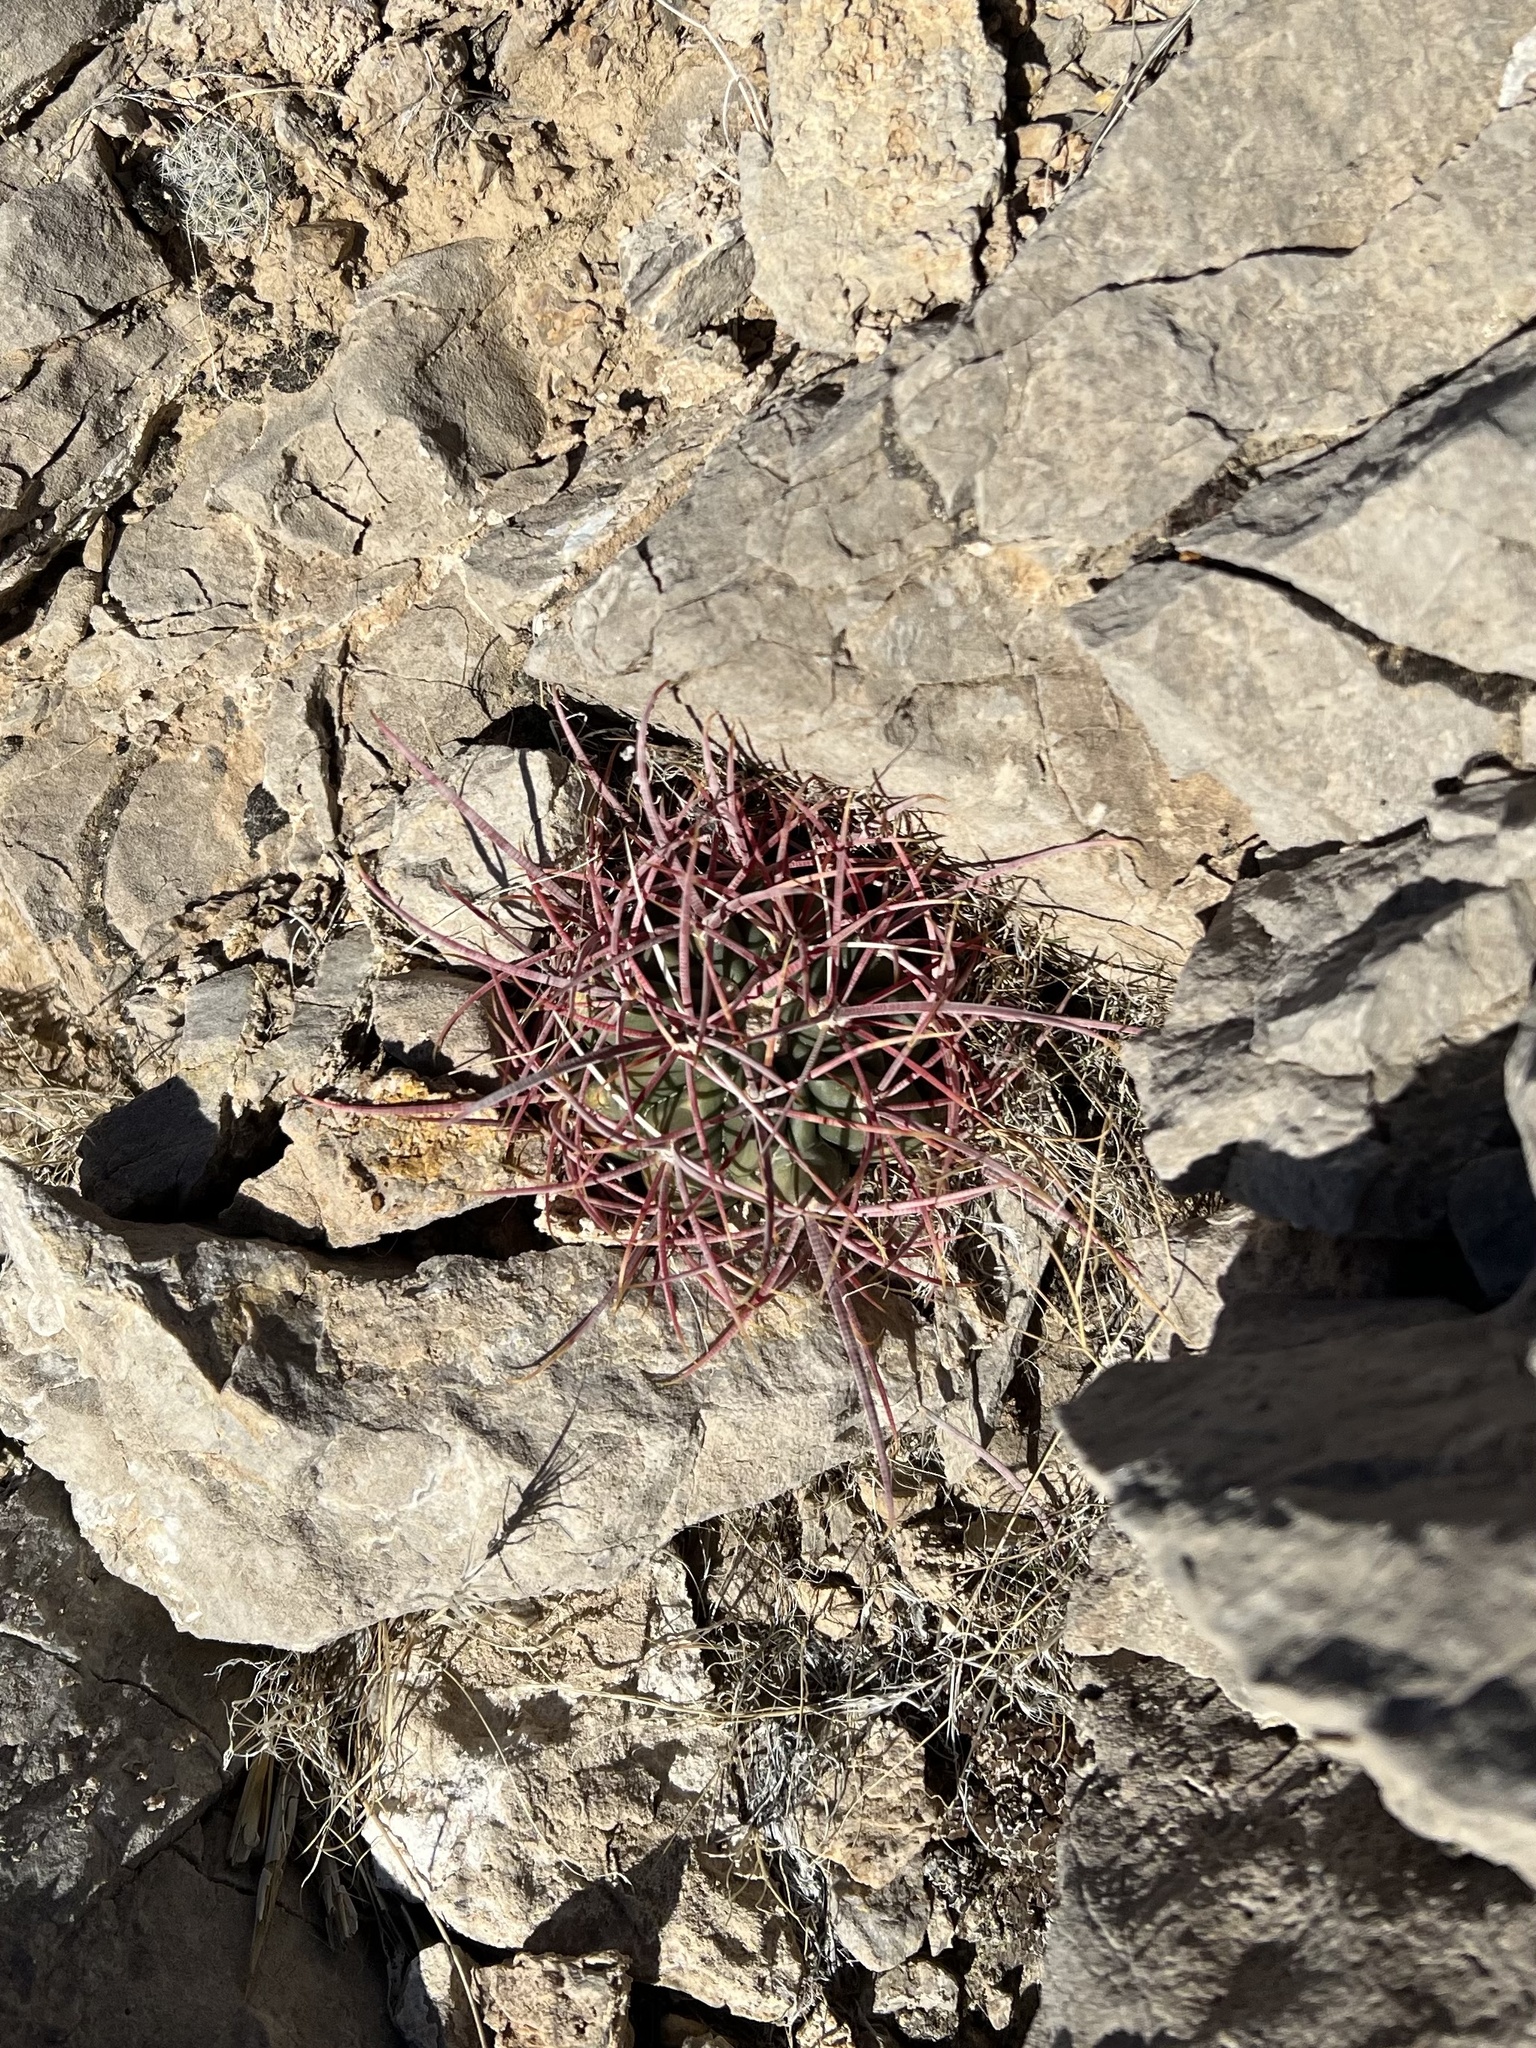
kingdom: Plantae
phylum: Tracheophyta
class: Magnoliopsida
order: Caryophyllales
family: Cactaceae
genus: Ferocactus
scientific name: Ferocactus cylindraceus
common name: California barrel cactus
